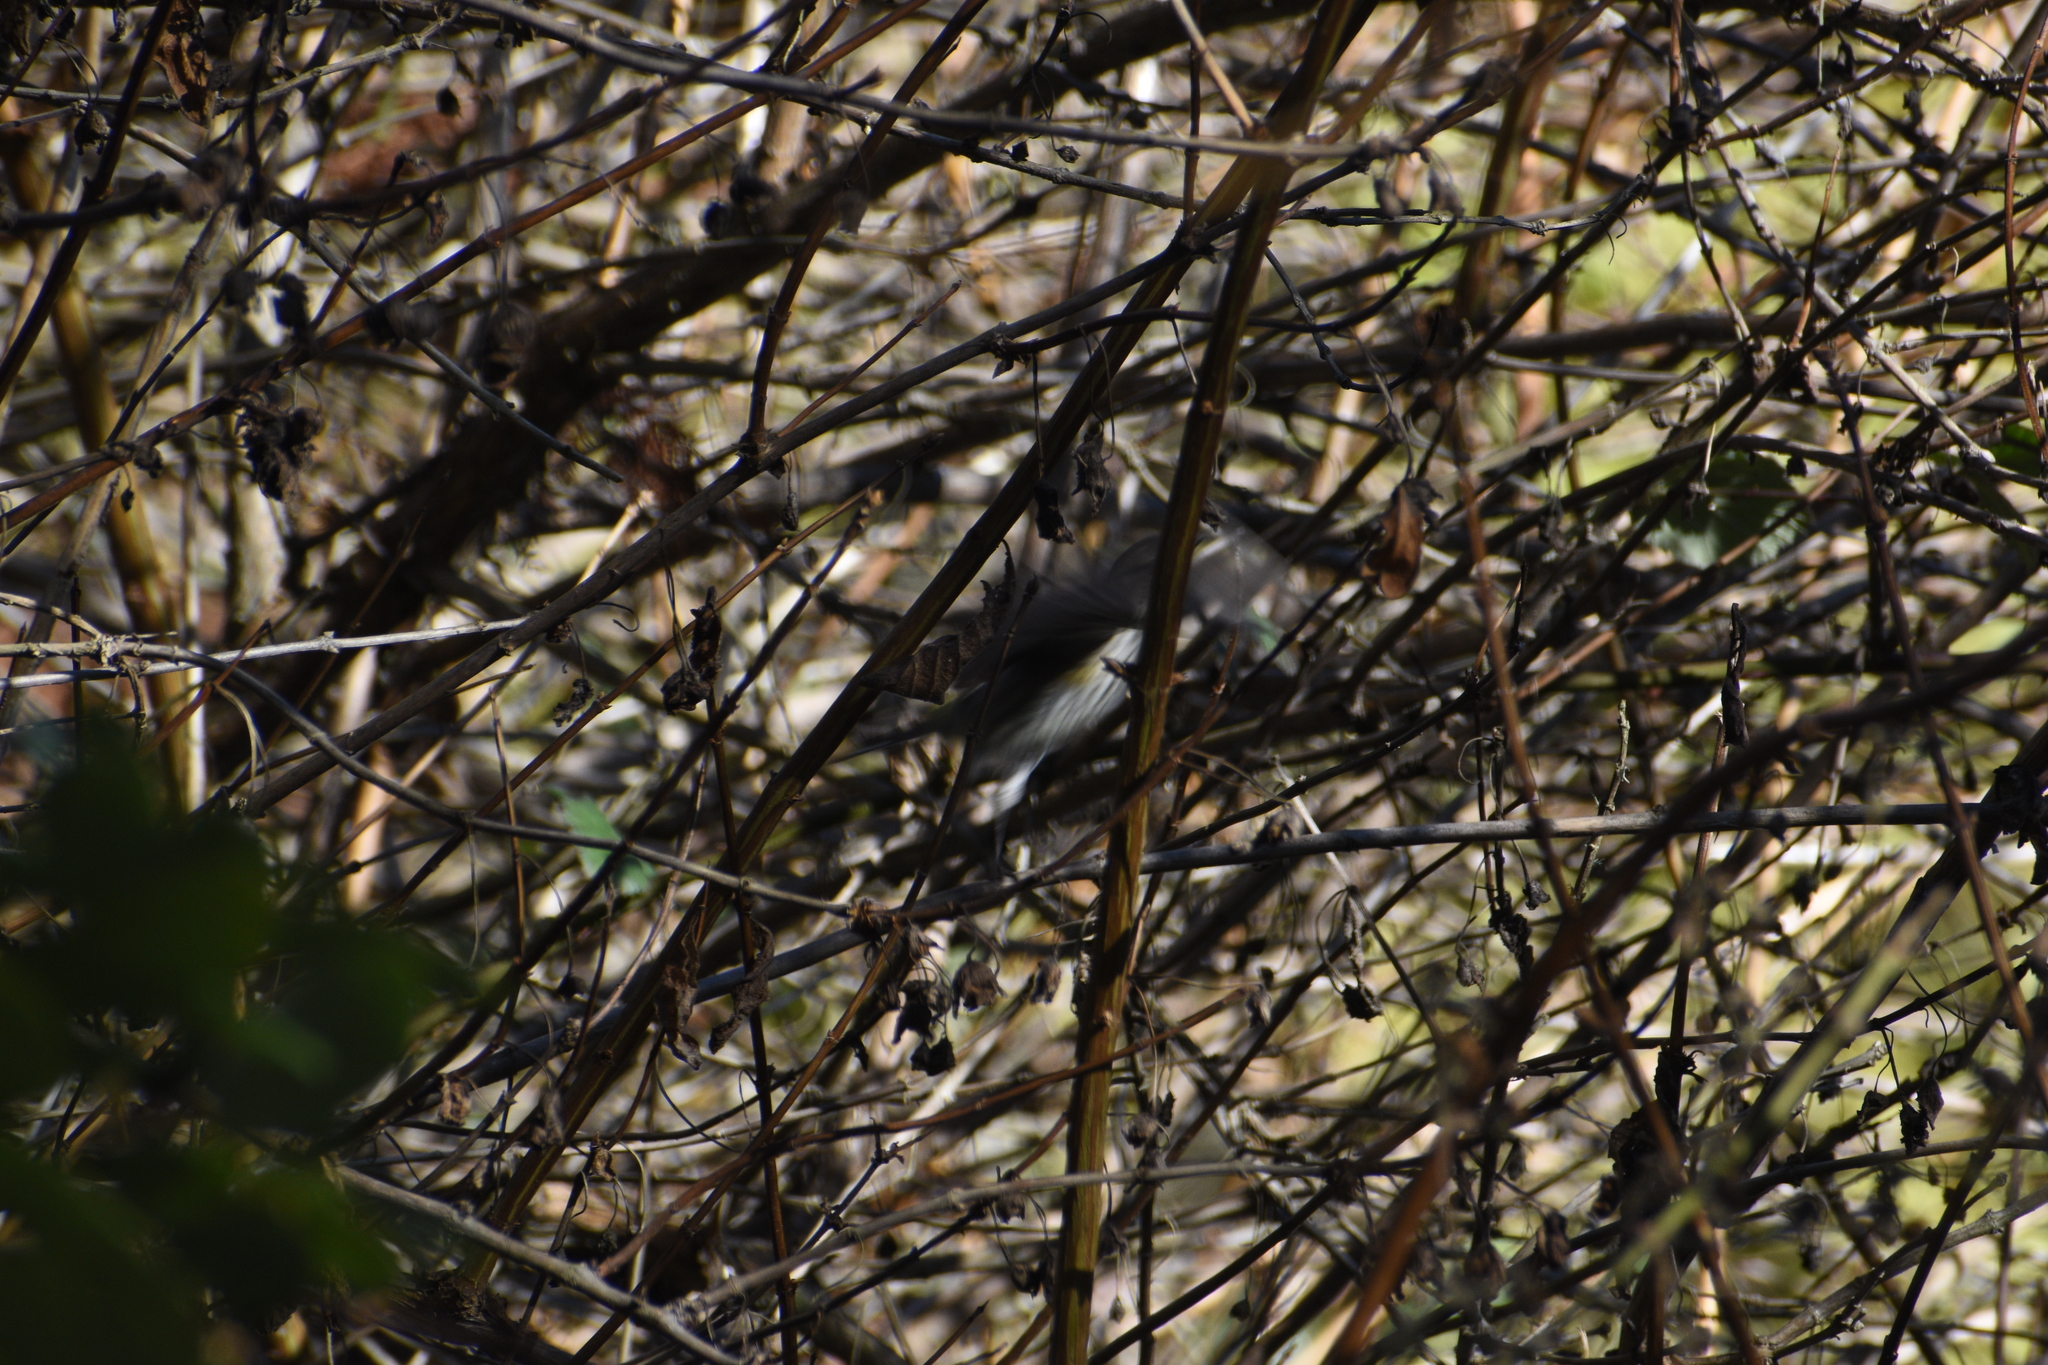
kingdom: Animalia
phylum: Chordata
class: Aves
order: Passeriformes
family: Parulidae
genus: Setophaga
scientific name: Setophaga coronata
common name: Myrtle warbler
